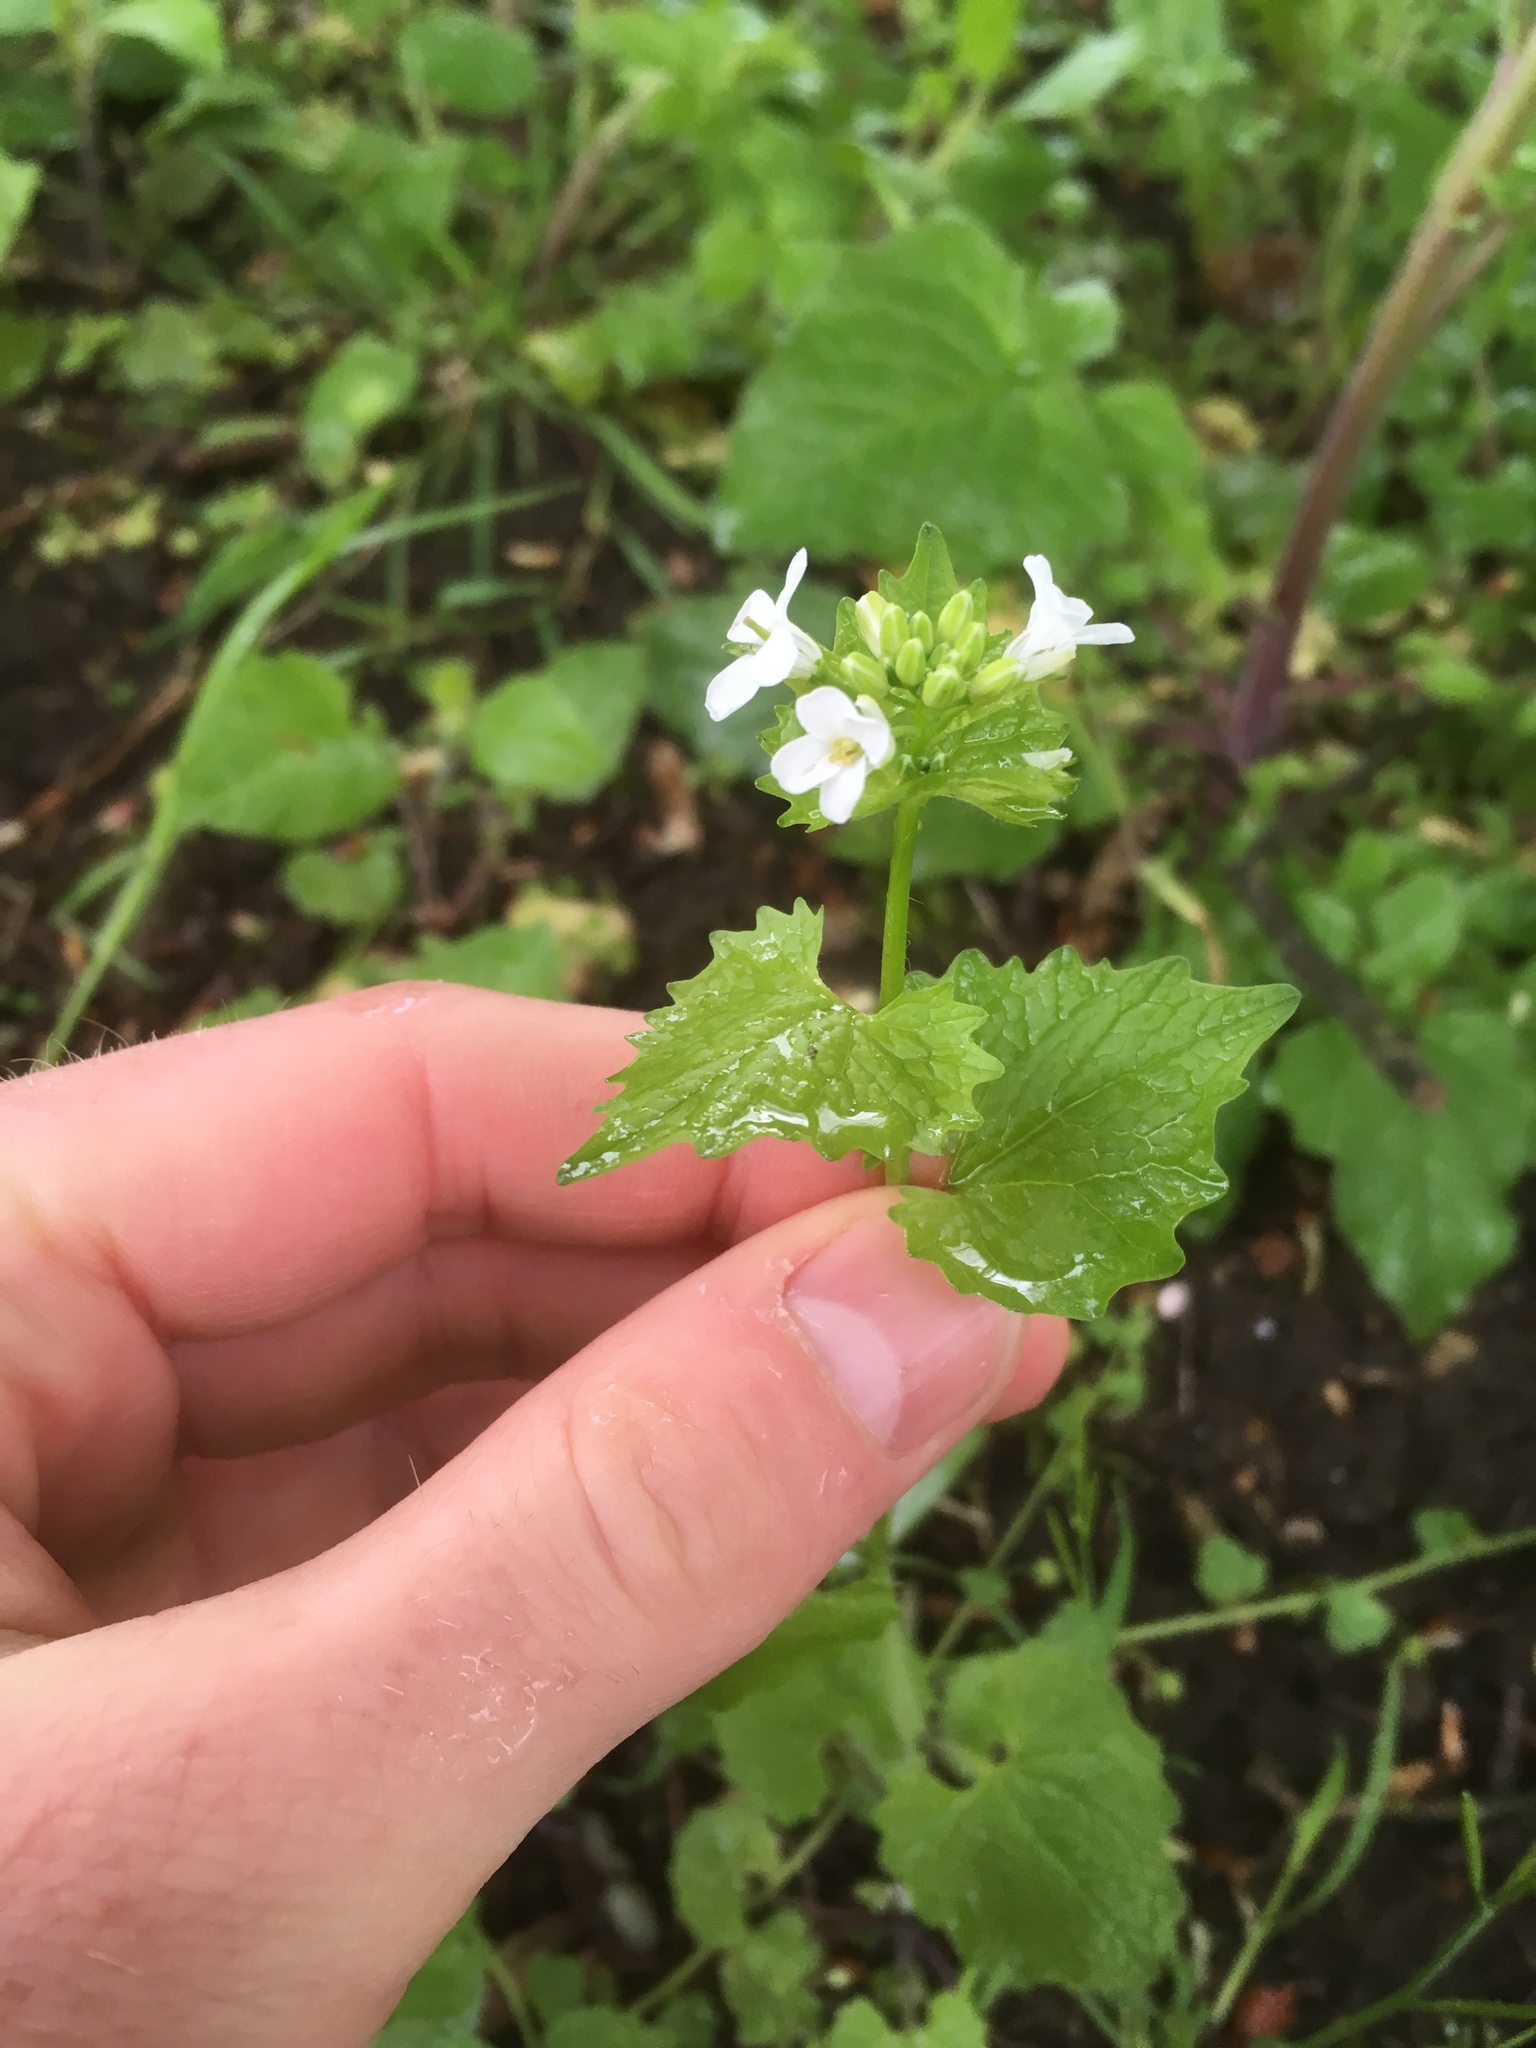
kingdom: Plantae
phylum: Tracheophyta
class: Magnoliopsida
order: Brassicales
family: Brassicaceae
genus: Alliaria
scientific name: Alliaria petiolata
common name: Garlic mustard
